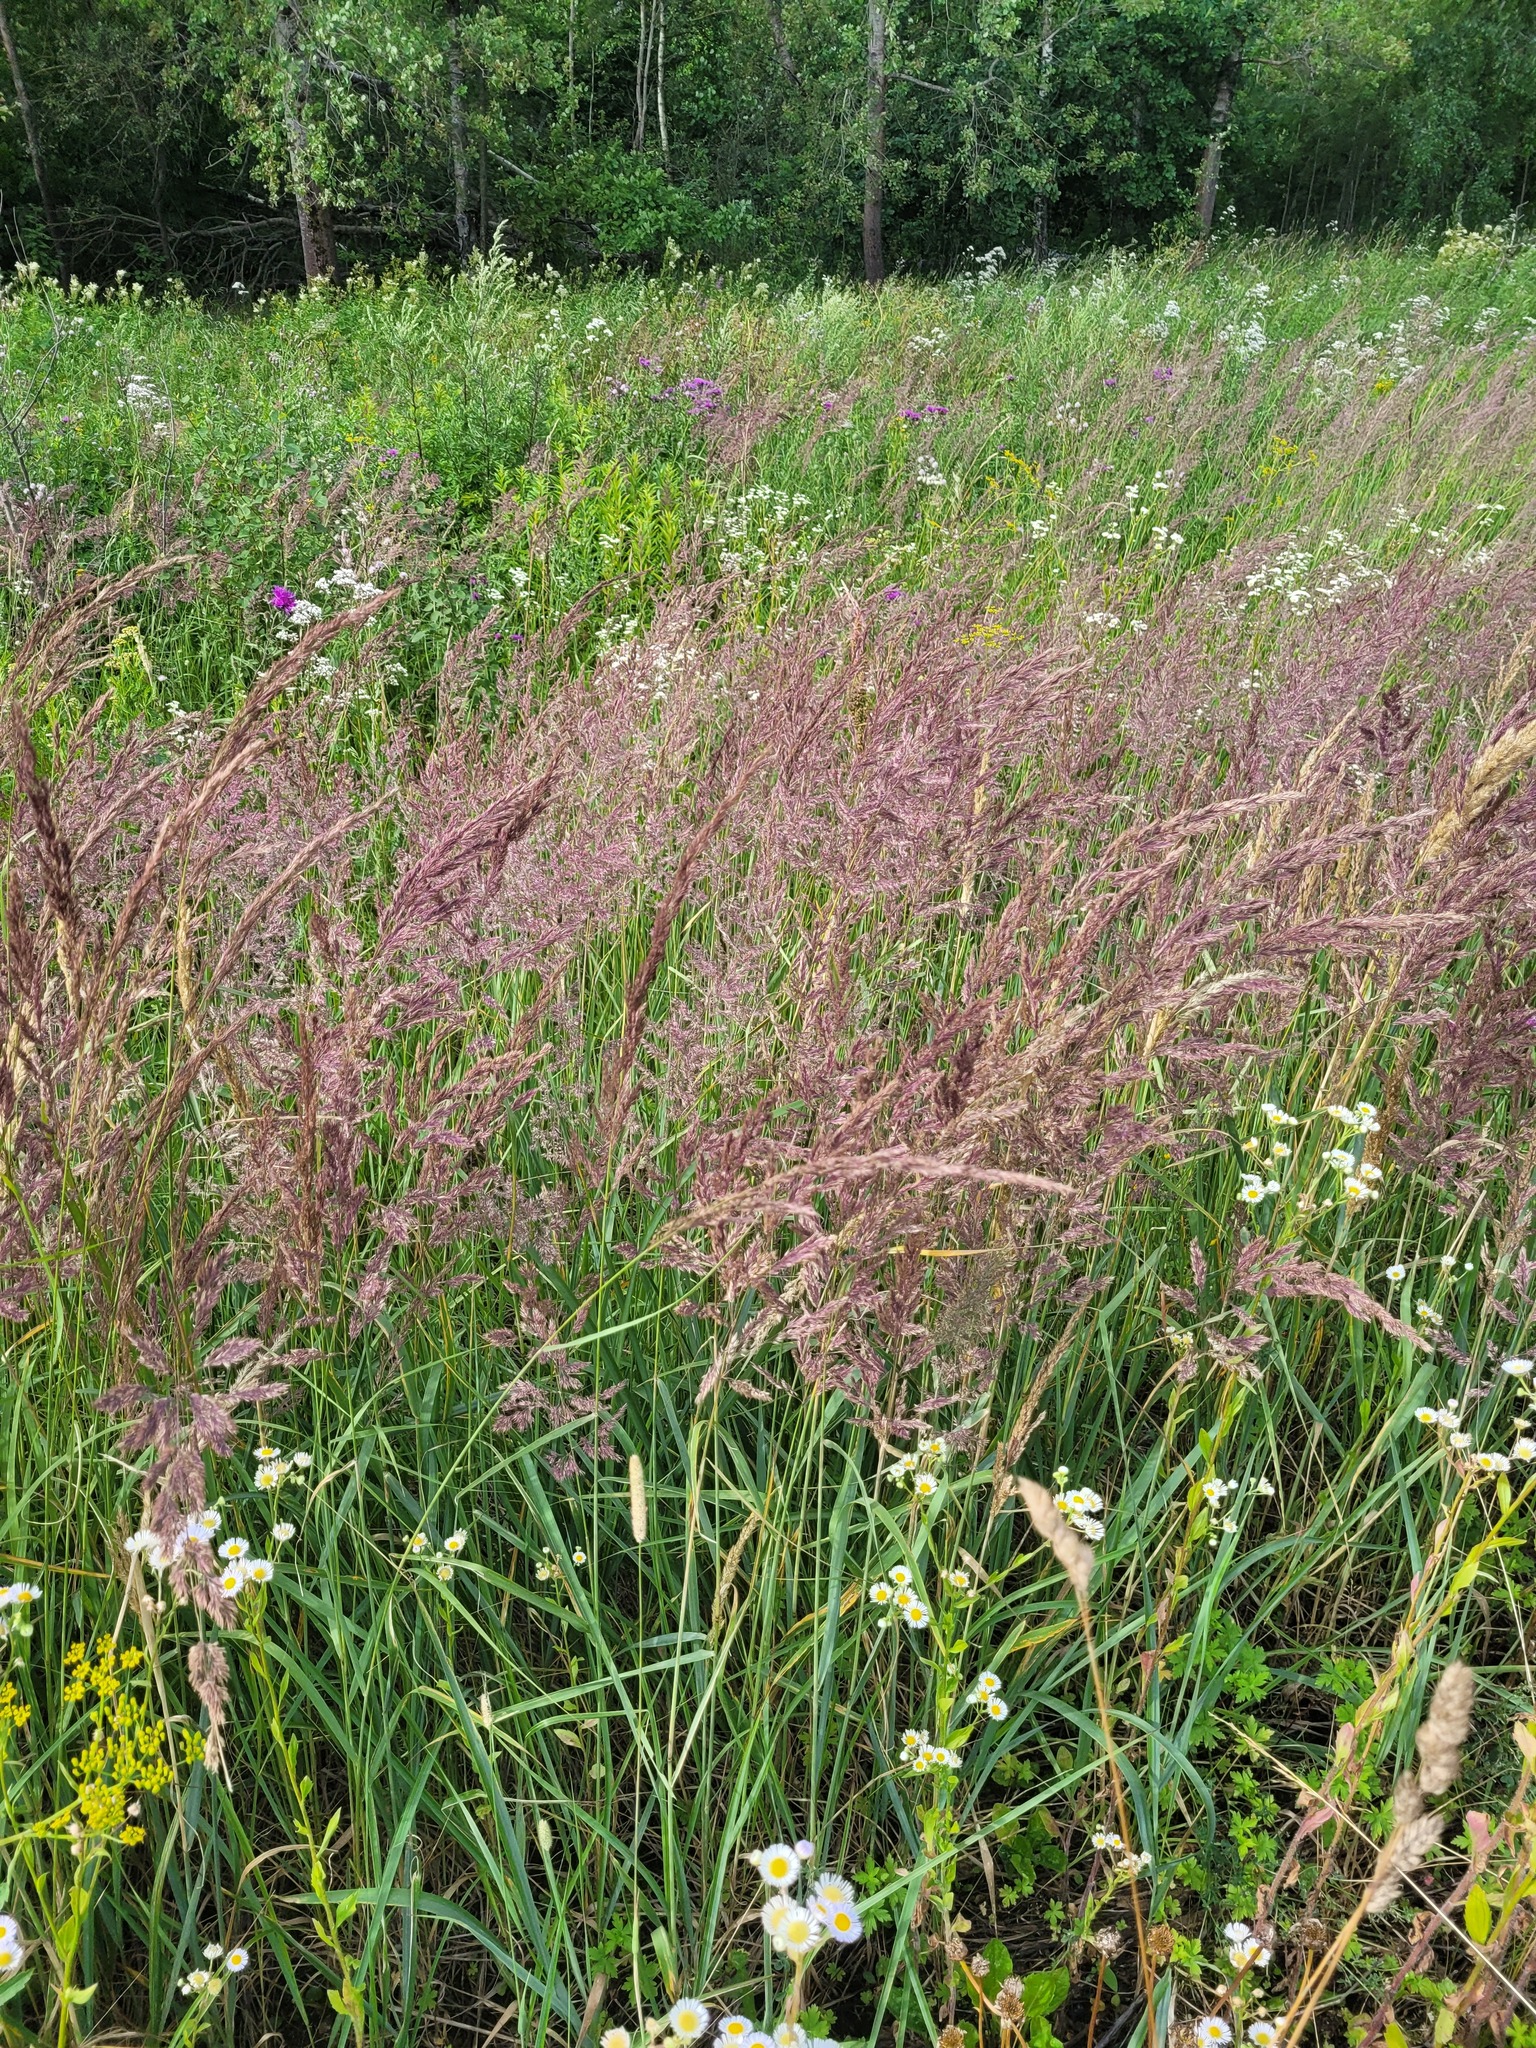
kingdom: Plantae
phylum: Tracheophyta
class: Liliopsida
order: Poales
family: Poaceae
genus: Calamagrostis
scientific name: Calamagrostis epigejos
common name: Wood small-reed
